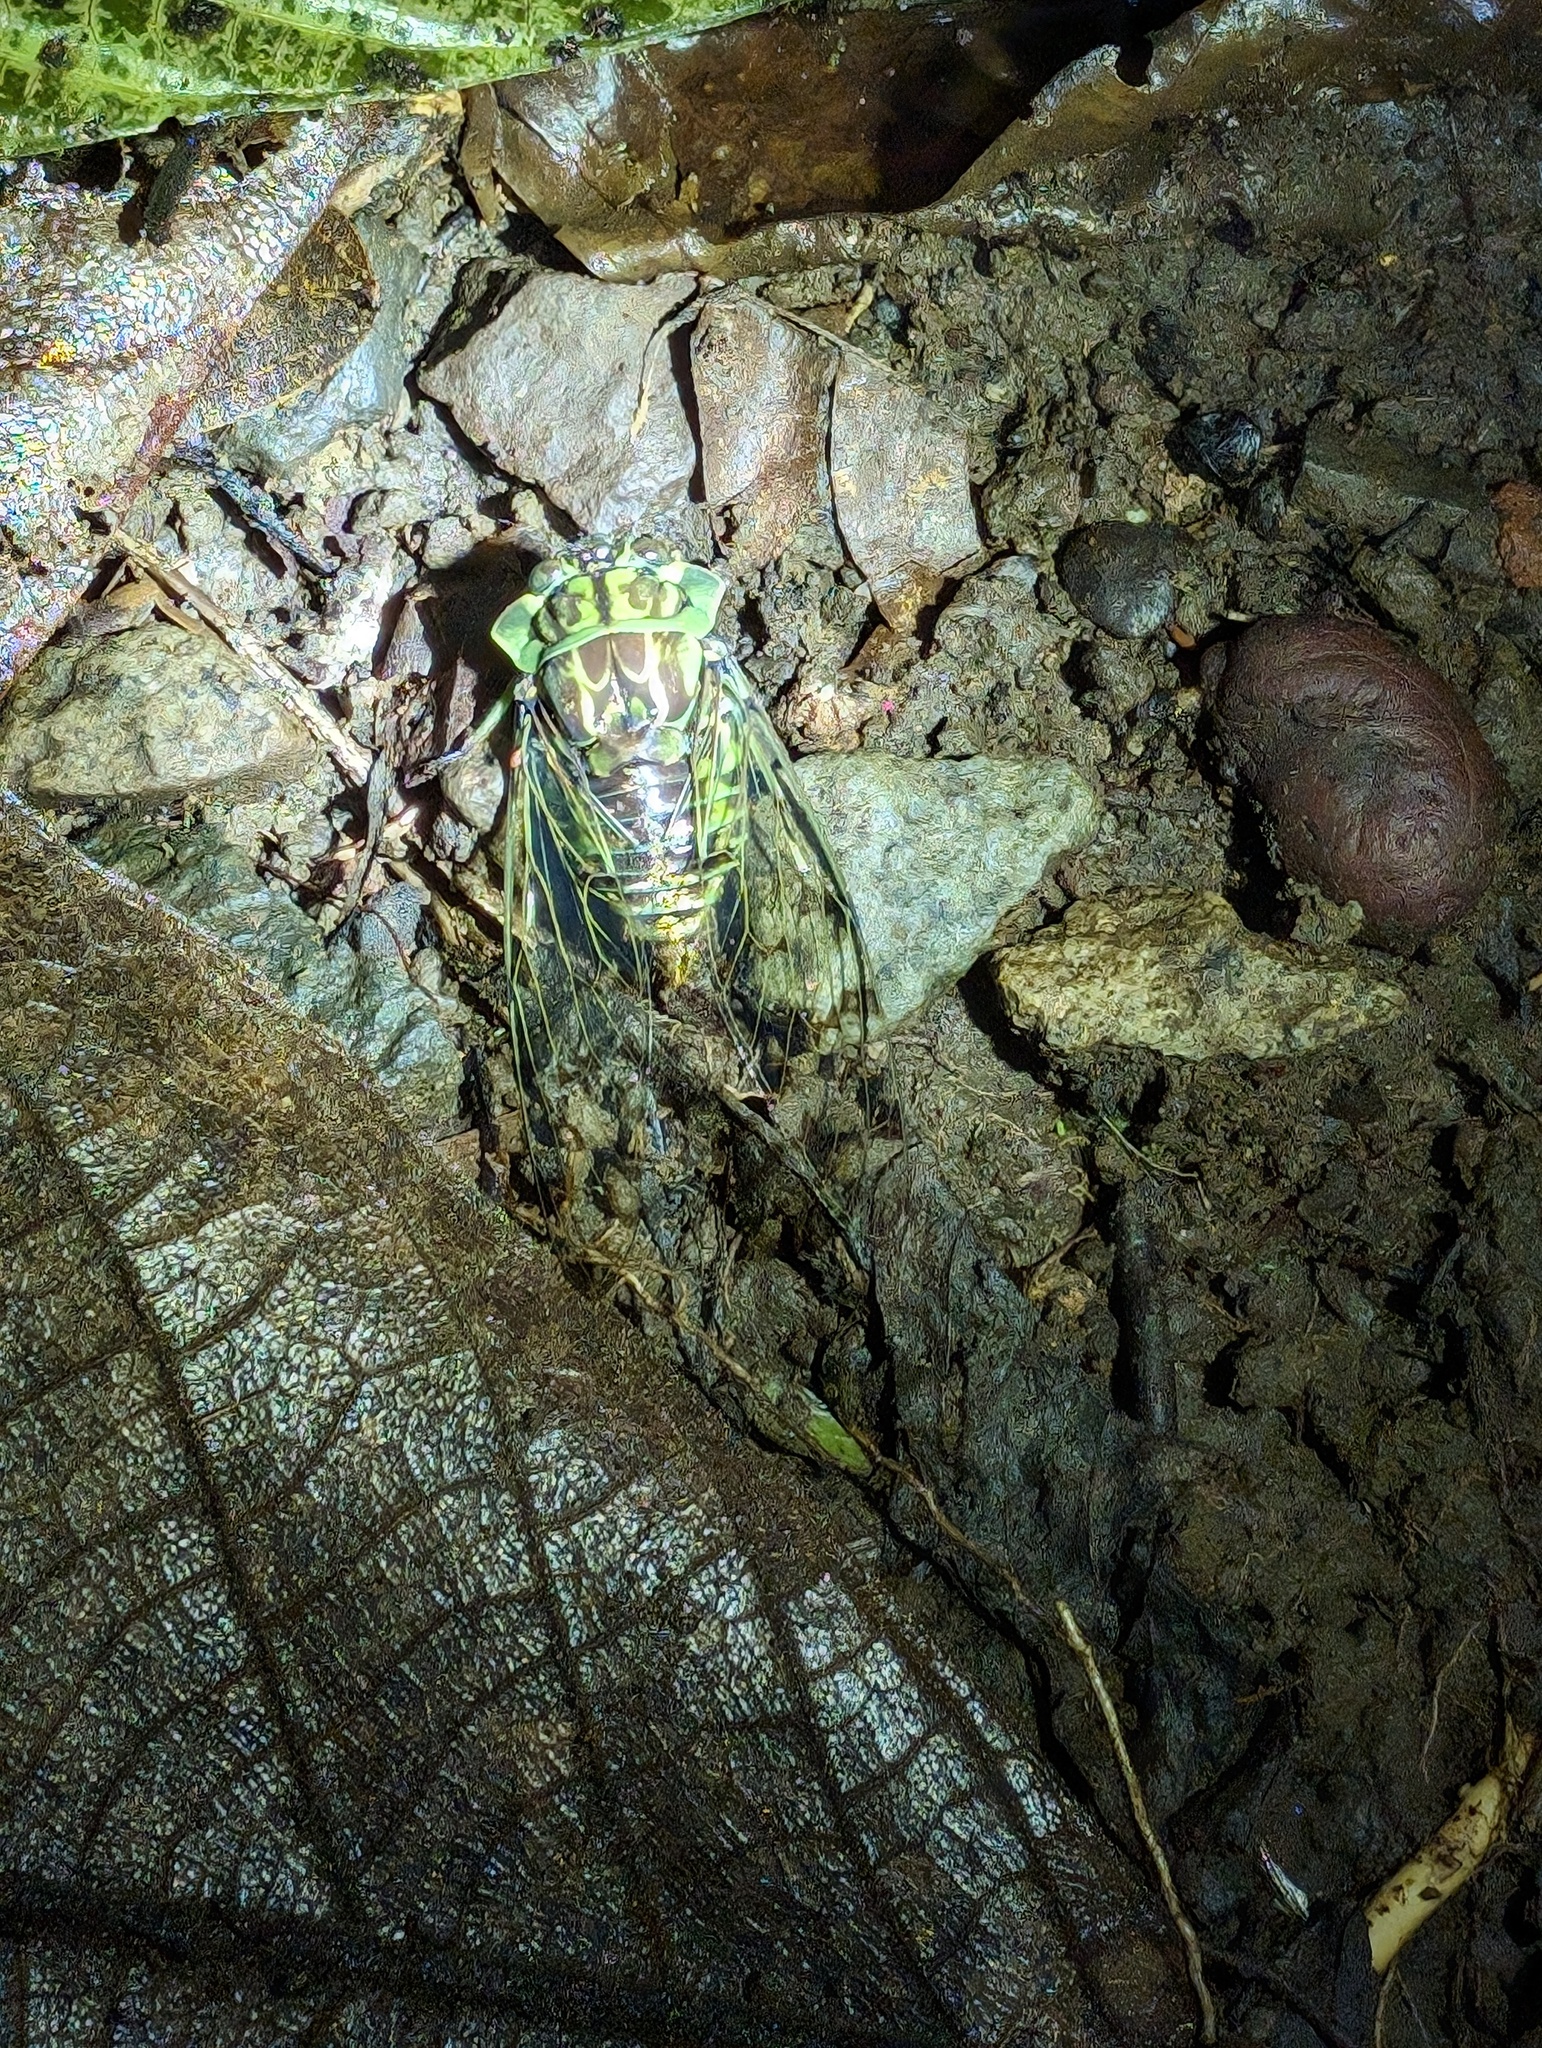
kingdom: Animalia
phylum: Arthropoda
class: Insecta
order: Hemiptera
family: Cicadidae
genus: Zammara
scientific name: Zammara nigriplaga
